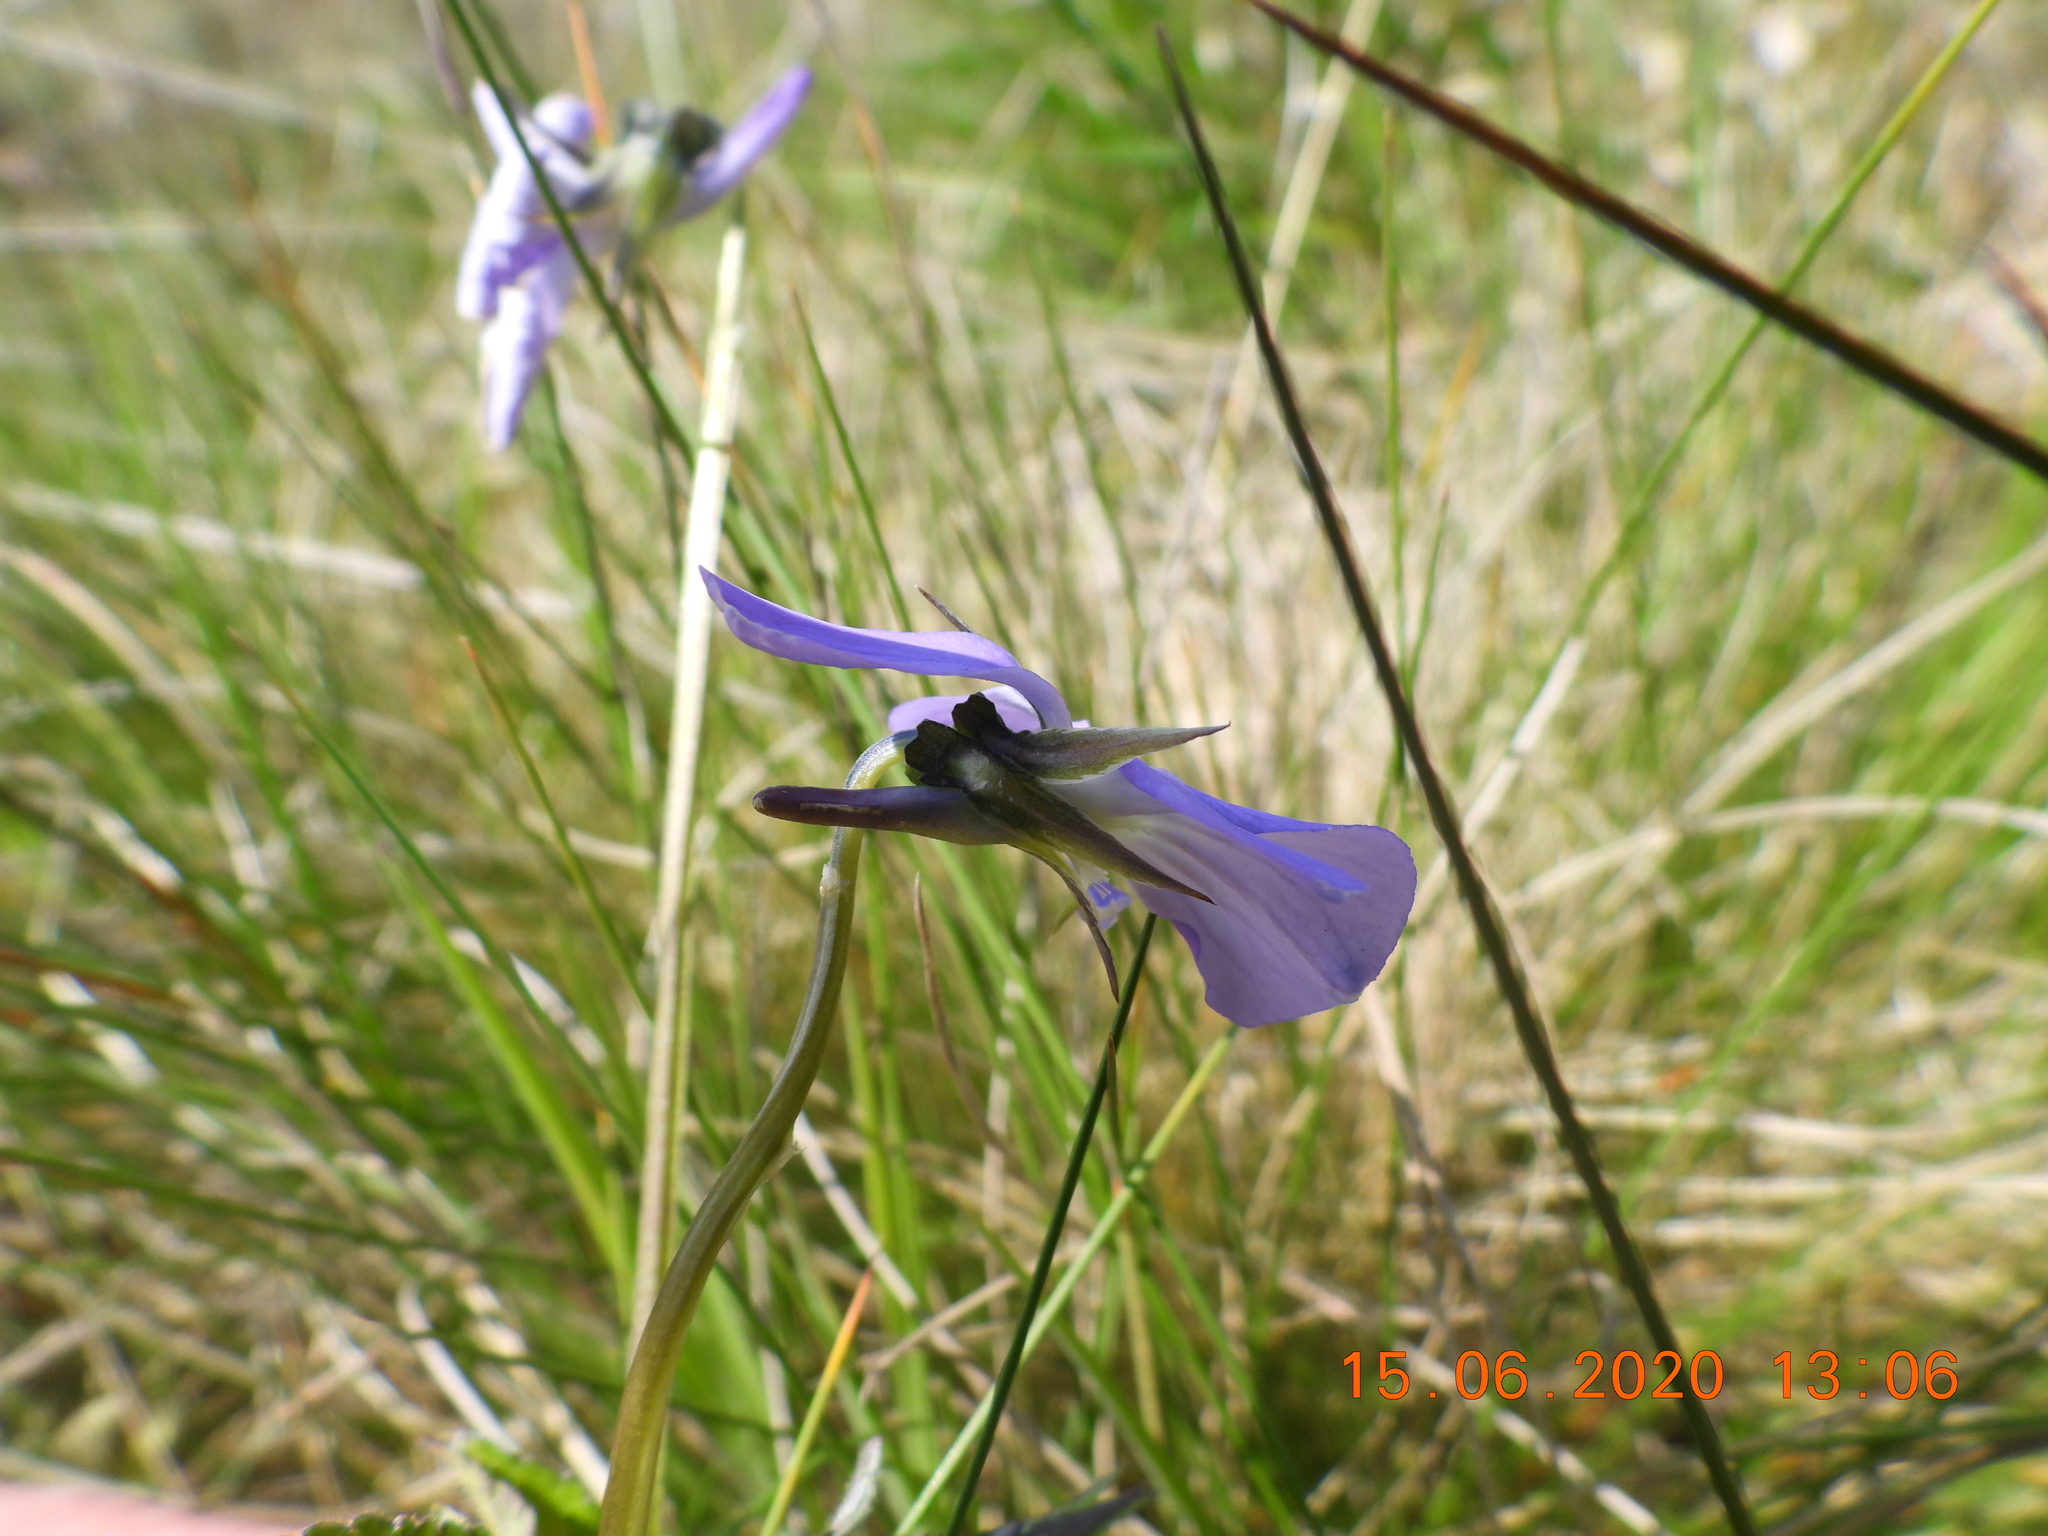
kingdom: Plantae
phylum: Tracheophyta
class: Magnoliopsida
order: Malpighiales
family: Violaceae
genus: Viola
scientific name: Viola cornuta
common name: Horned pansy
